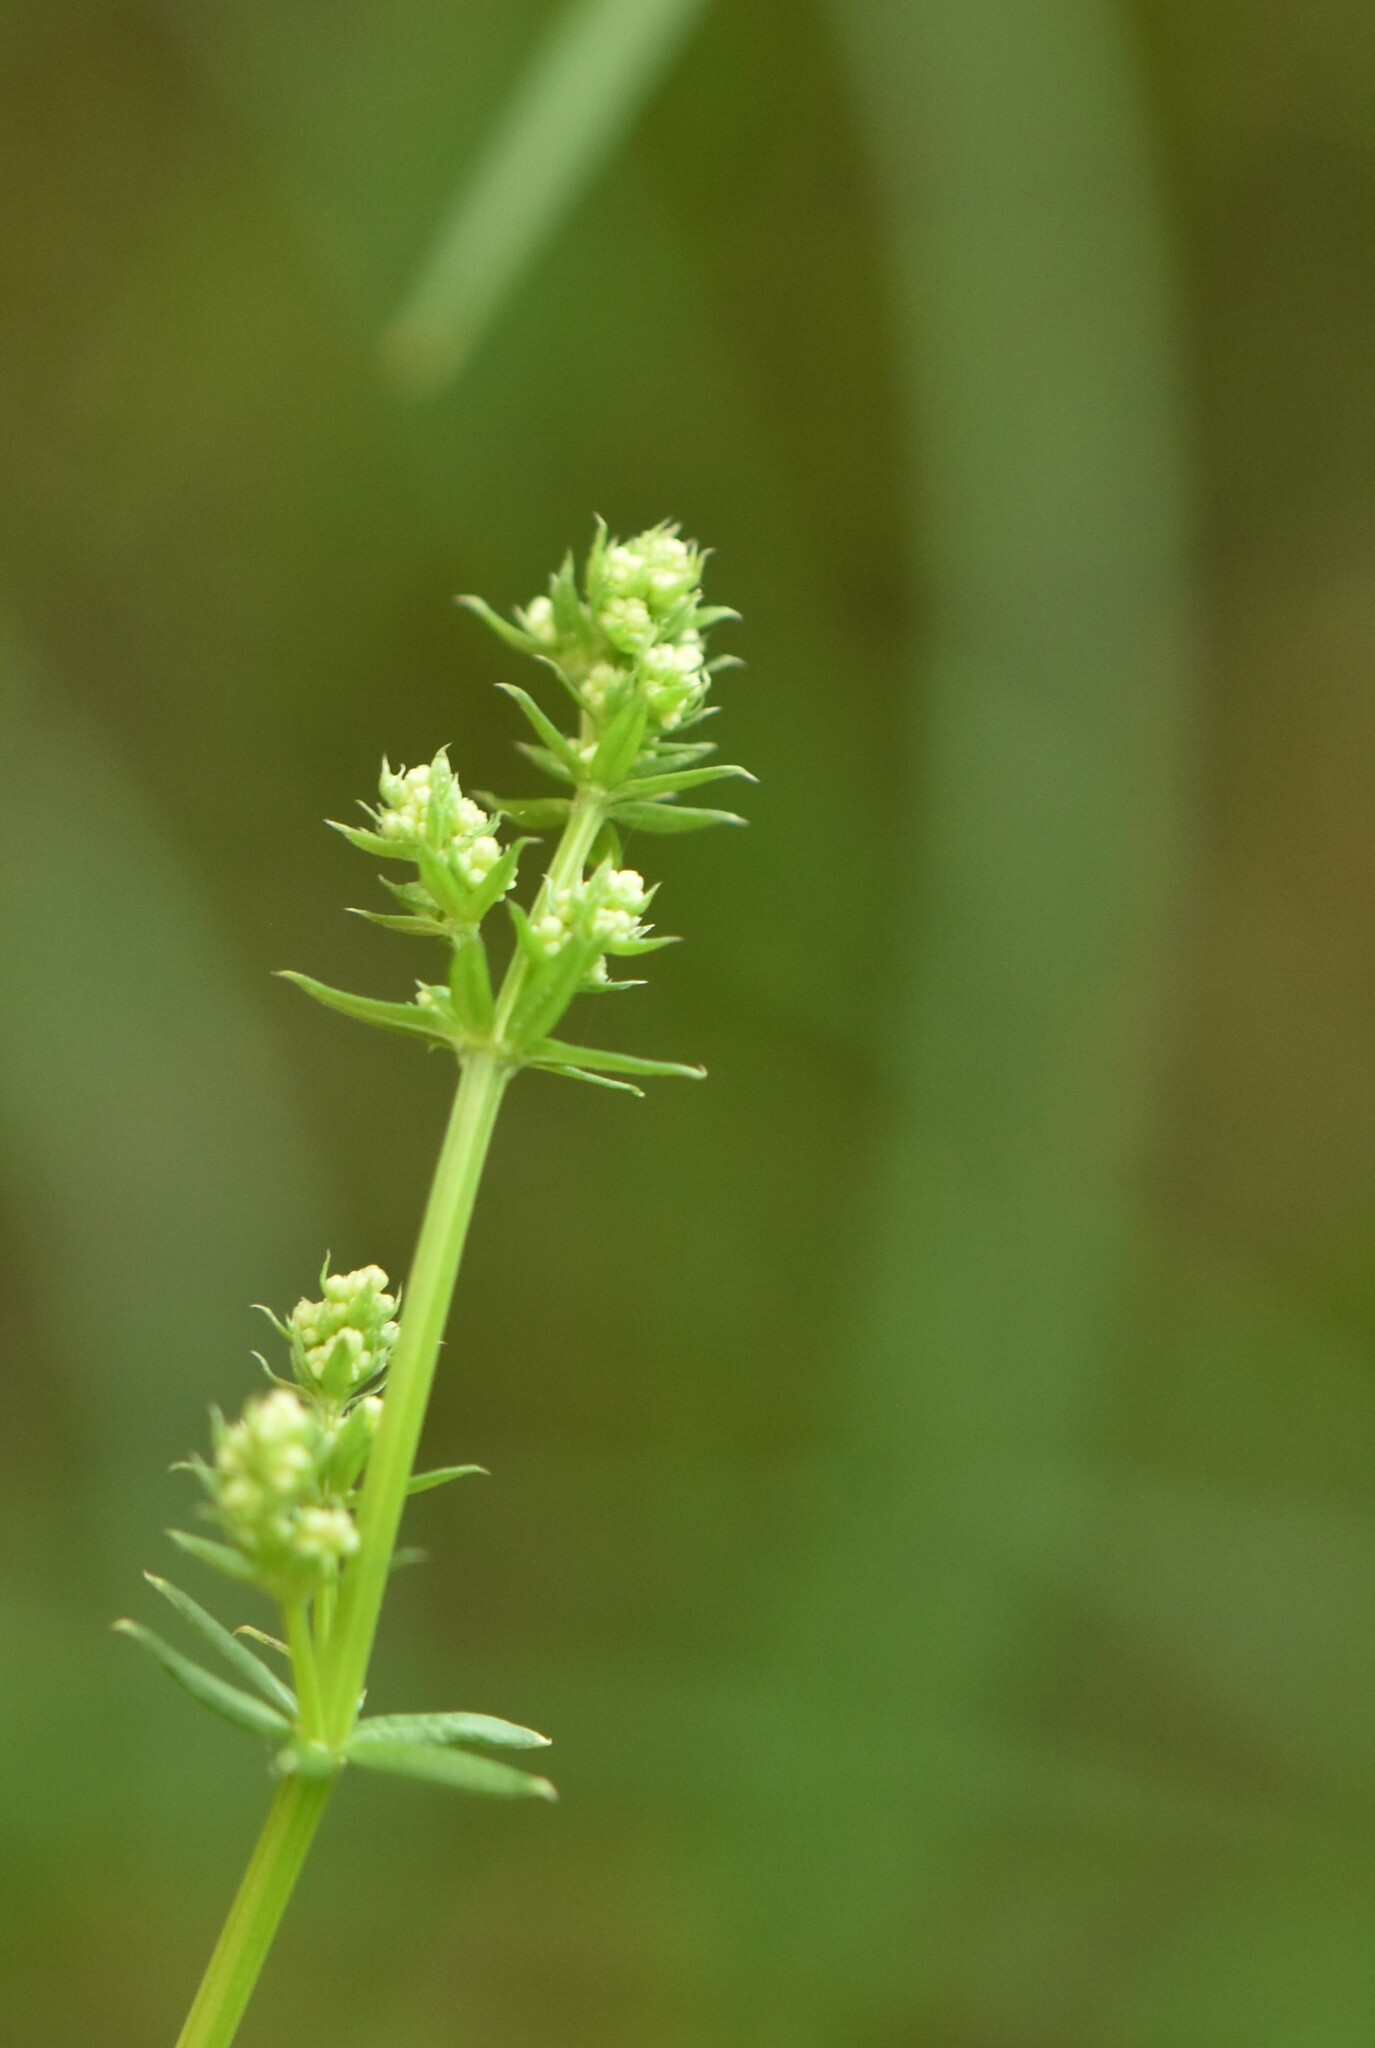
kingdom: Plantae
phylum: Tracheophyta
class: Magnoliopsida
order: Gentianales
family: Rubiaceae
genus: Galium
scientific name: Galium mollugo
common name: Hedge bedstraw
